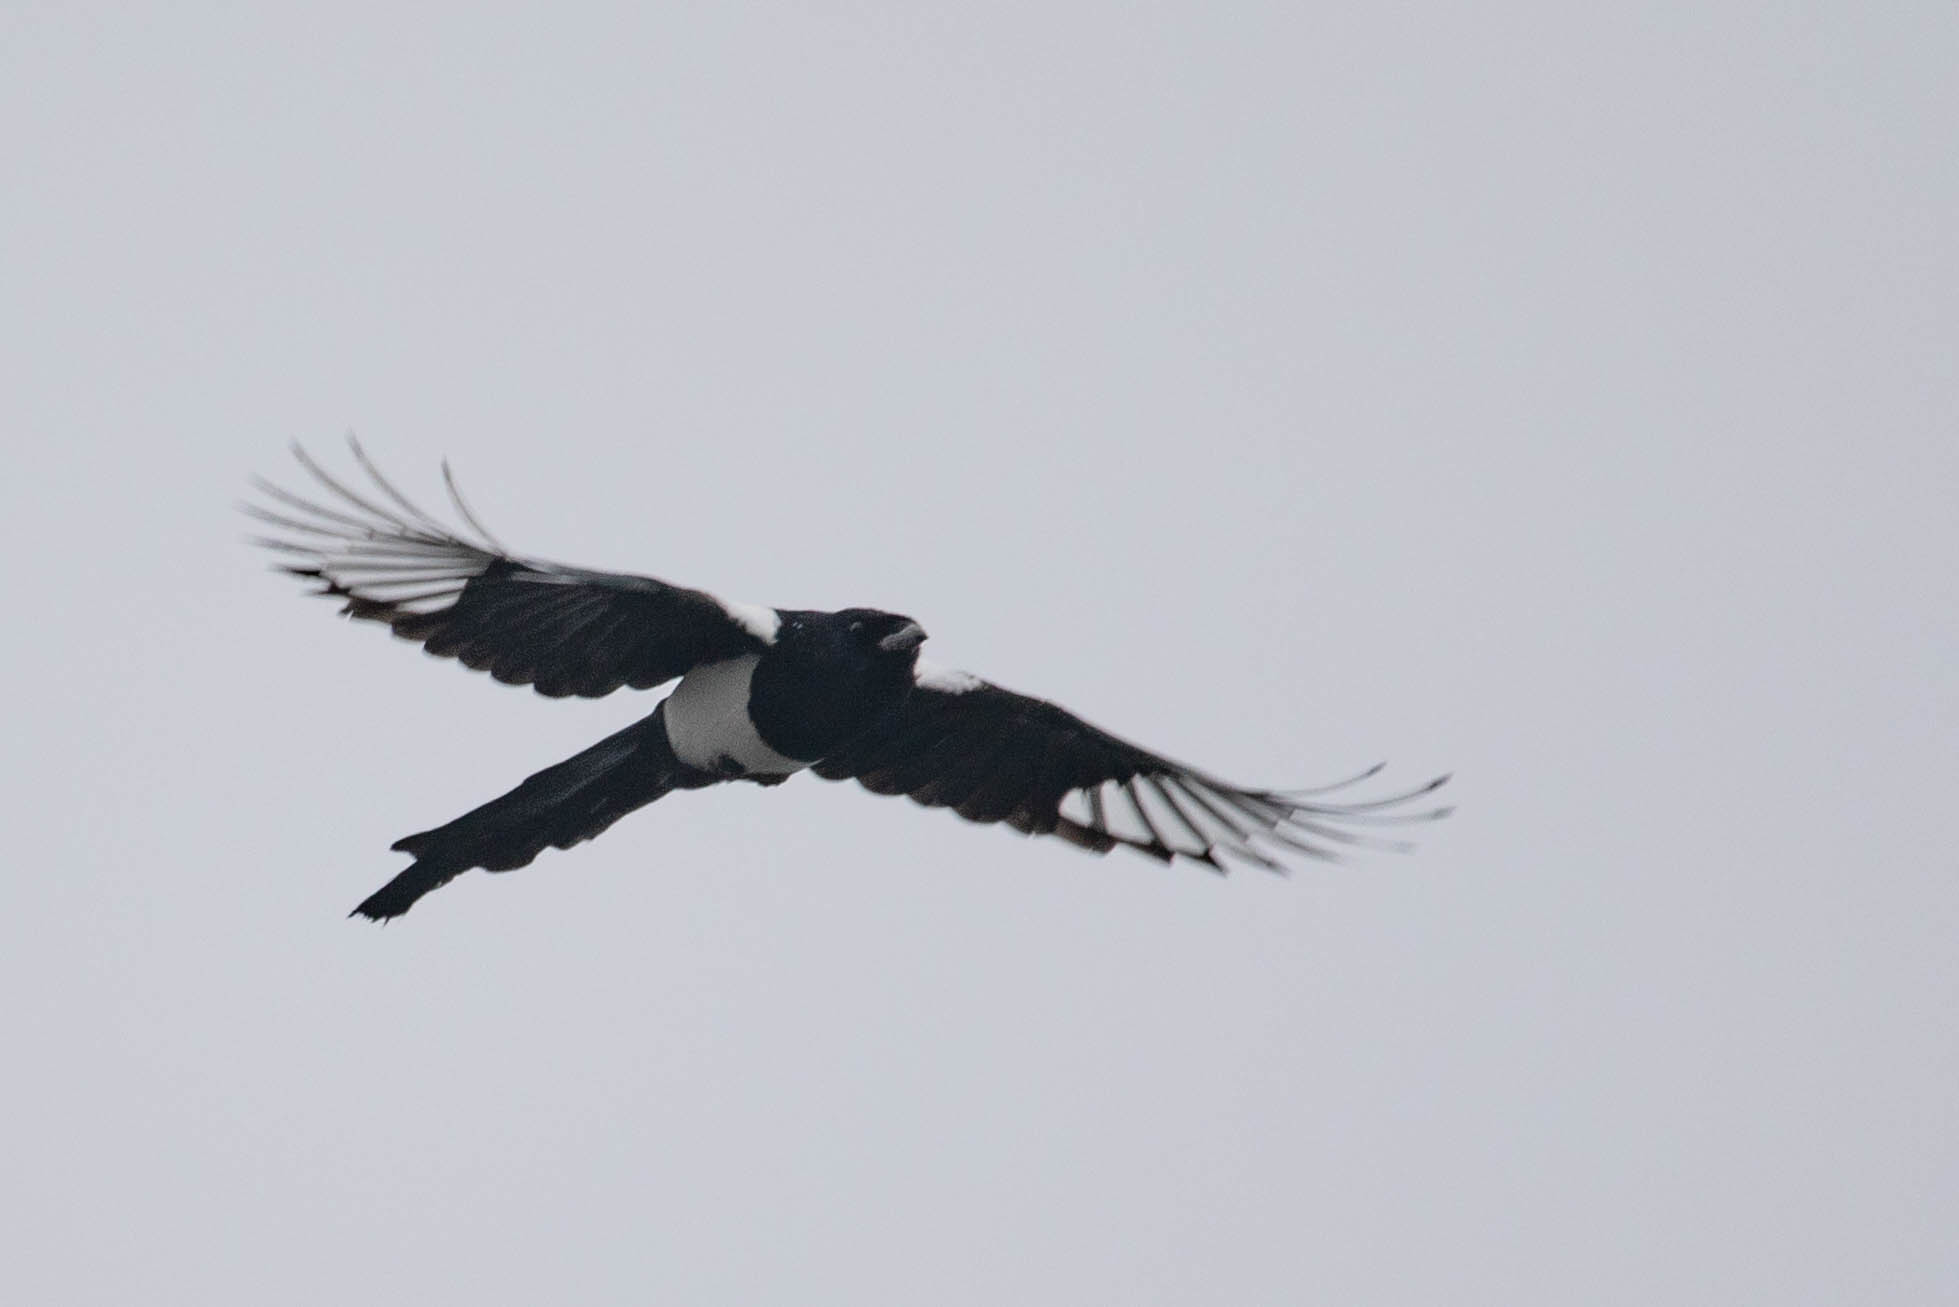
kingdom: Animalia
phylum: Chordata
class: Aves
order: Passeriformes
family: Corvidae
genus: Pica
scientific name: Pica hudsonia
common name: Black-billed magpie
